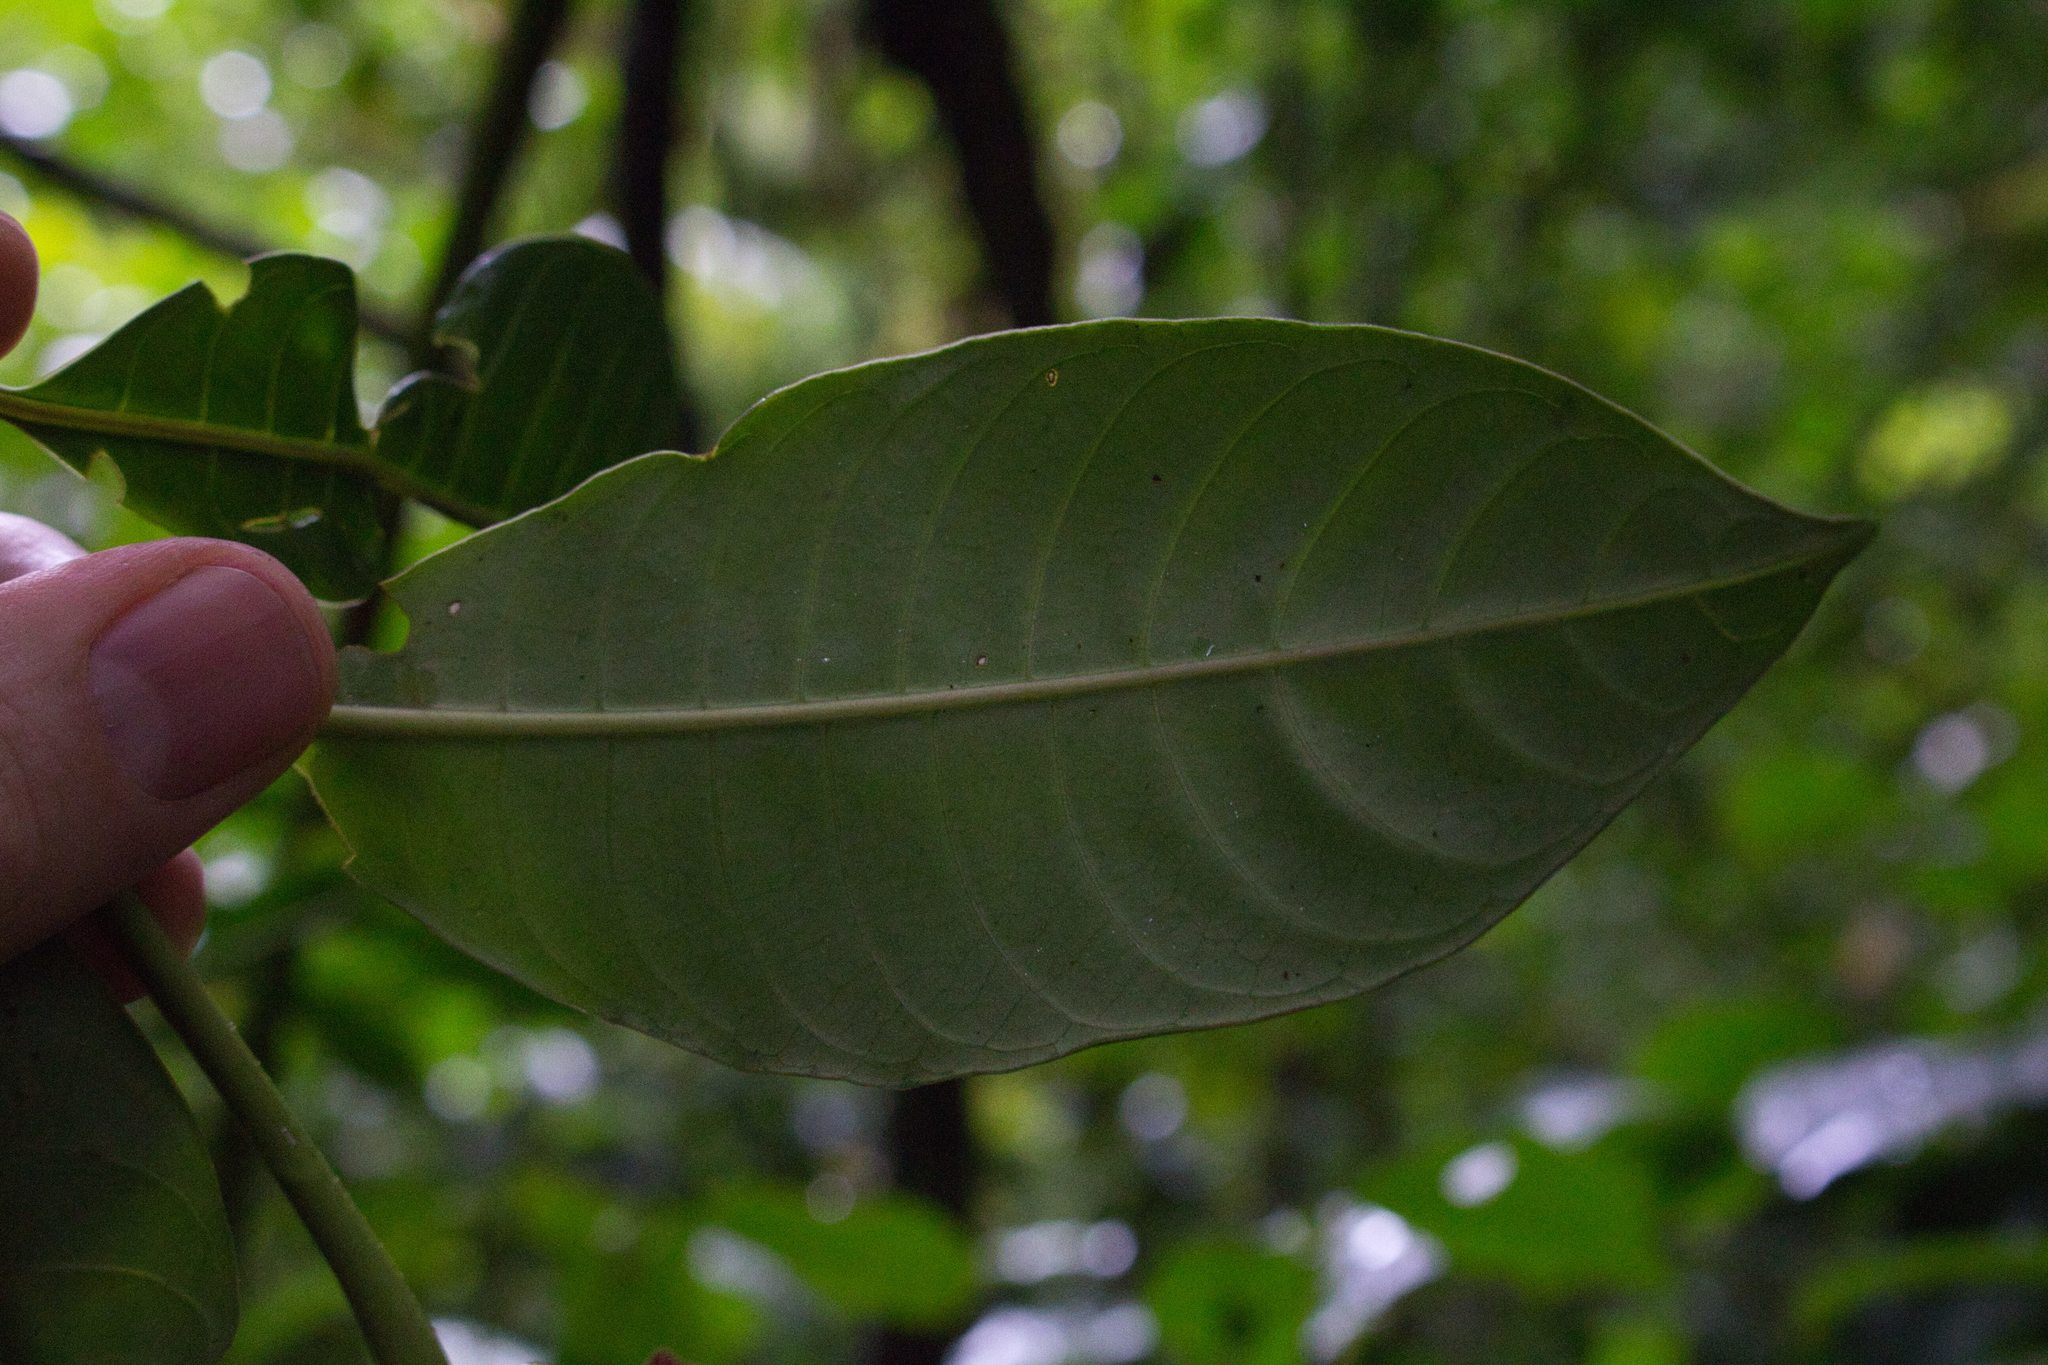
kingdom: Plantae
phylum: Tracheophyta
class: Magnoliopsida
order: Gentianales
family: Rubiaceae
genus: Palicourea
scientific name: Palicourea elata
